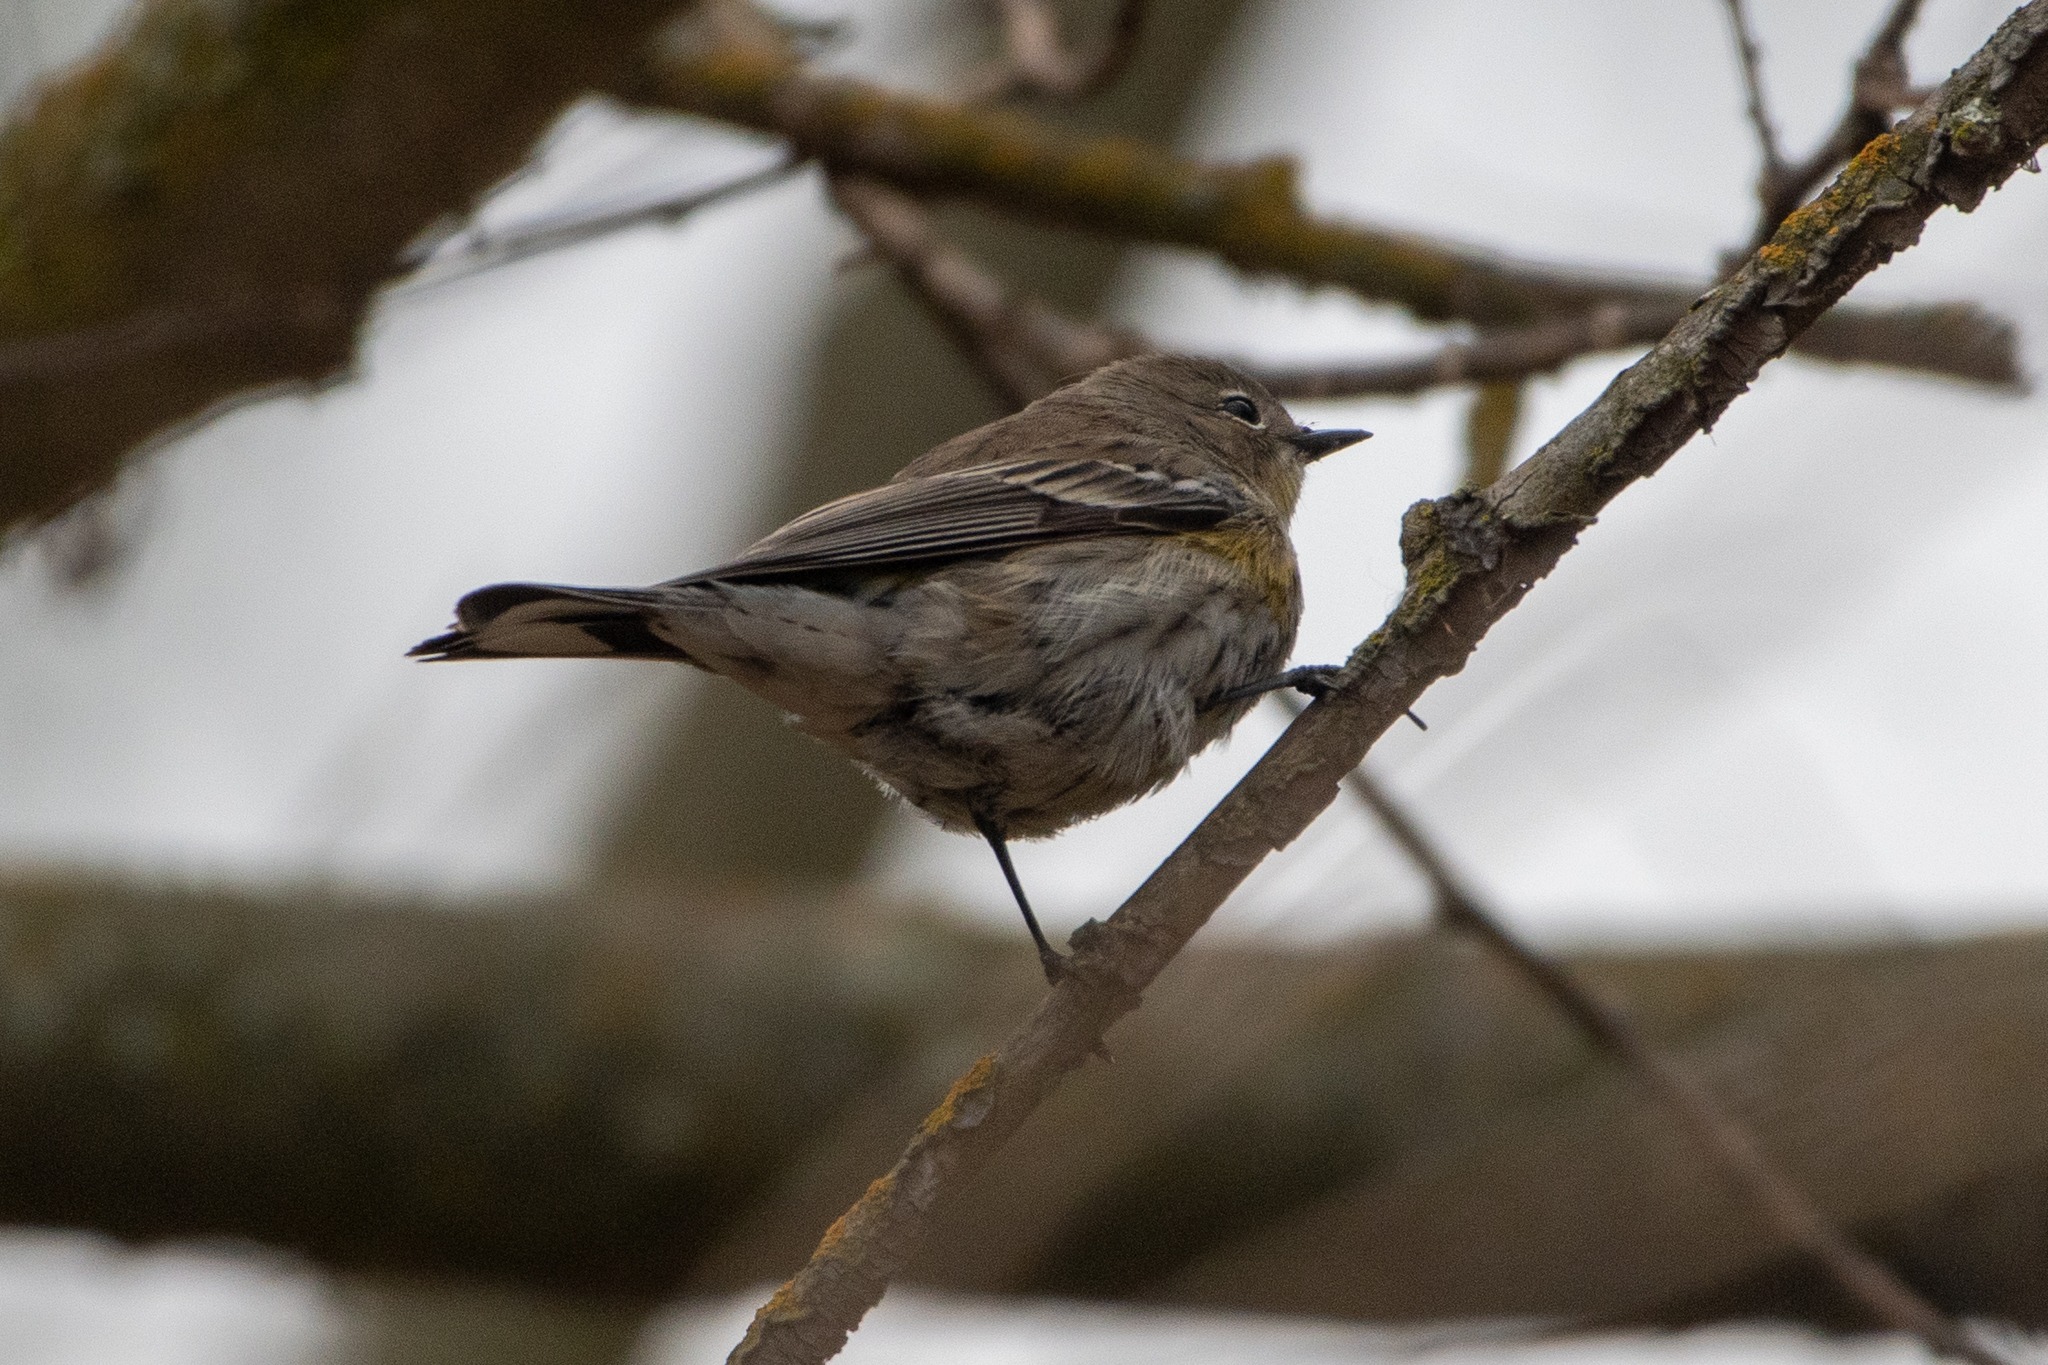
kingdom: Animalia
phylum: Chordata
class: Aves
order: Passeriformes
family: Parulidae
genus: Setophaga
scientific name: Setophaga coronata
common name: Myrtle warbler
